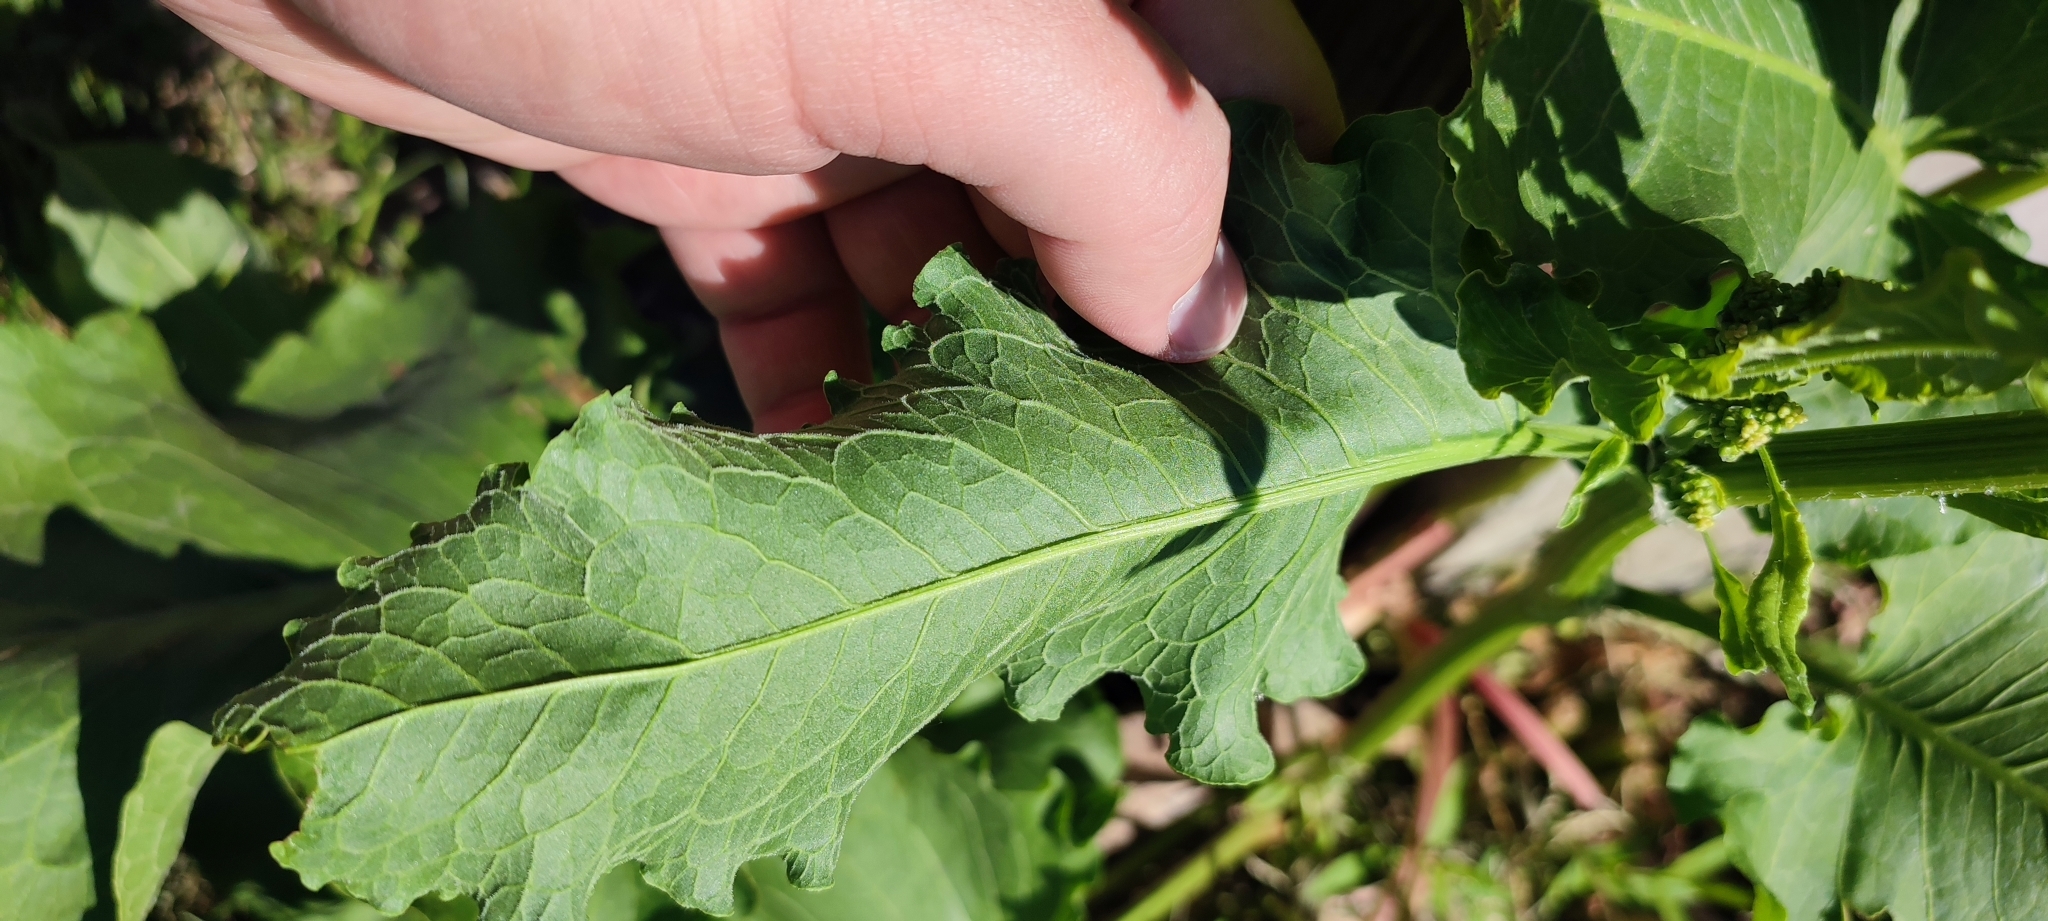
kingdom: Plantae
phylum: Tracheophyta
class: Magnoliopsida
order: Caryophyllales
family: Polygonaceae
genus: Rumex
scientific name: Rumex confertus
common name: Russian dock
